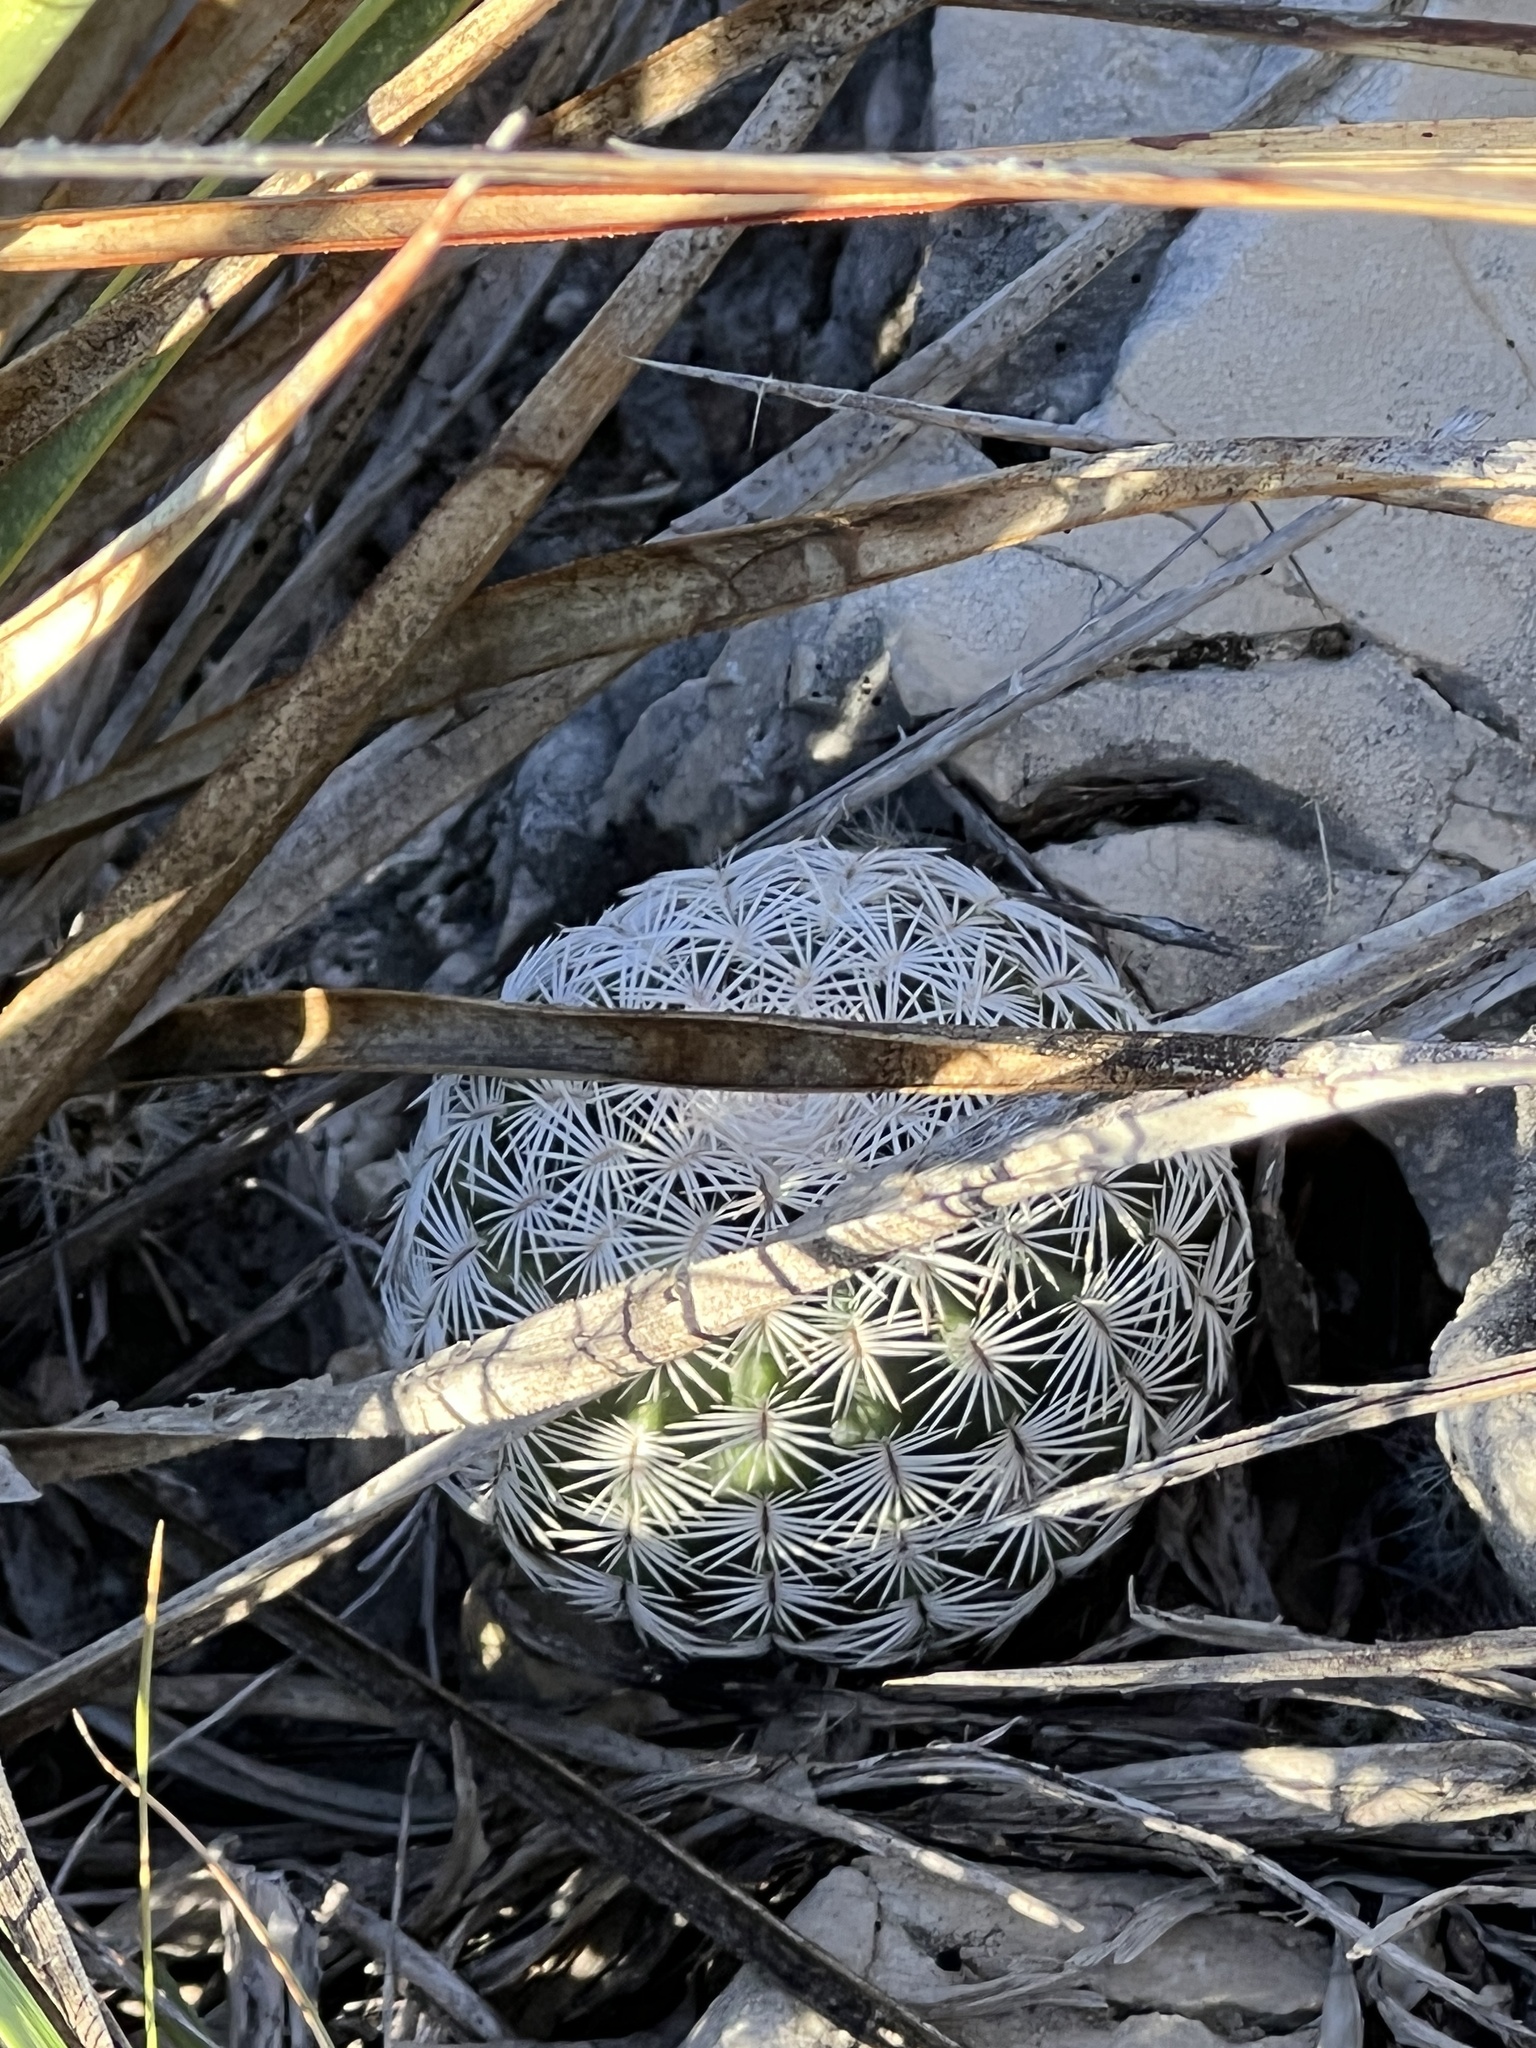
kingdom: Plantae
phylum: Tracheophyta
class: Magnoliopsida
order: Caryophyllales
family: Cactaceae
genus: Echinocereus
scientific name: Echinocereus reichenbachii
